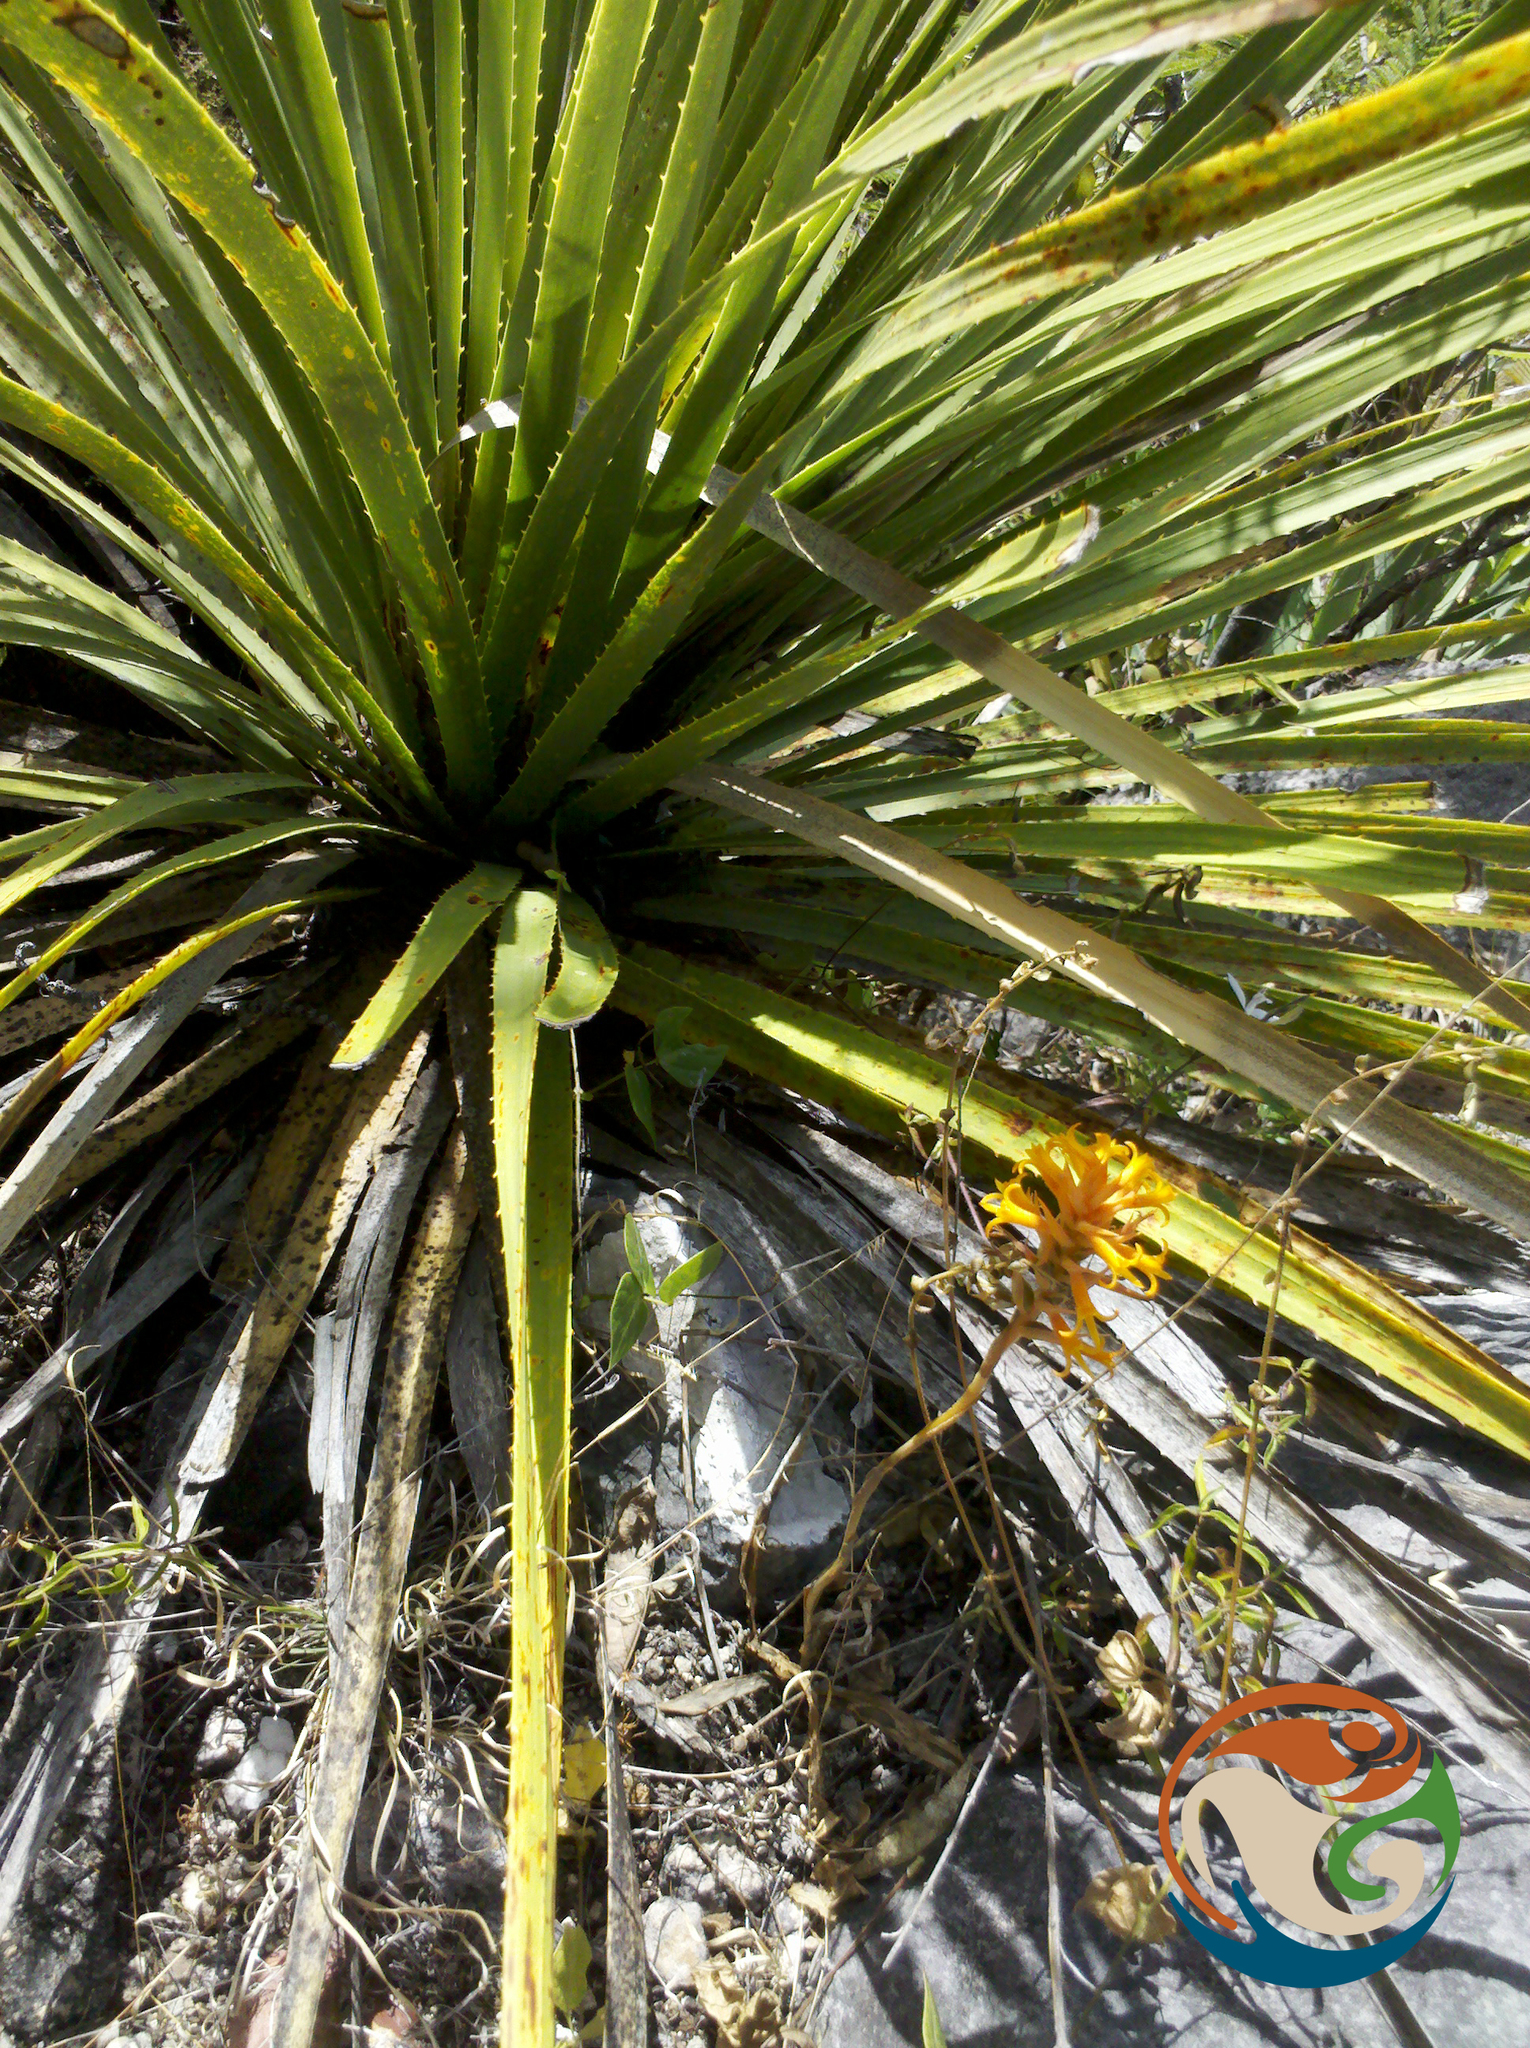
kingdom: Plantae
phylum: Tracheophyta
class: Liliopsida
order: Asparagales
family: Asparagaceae
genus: Dasylirion
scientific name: Dasylirion serratifolium
